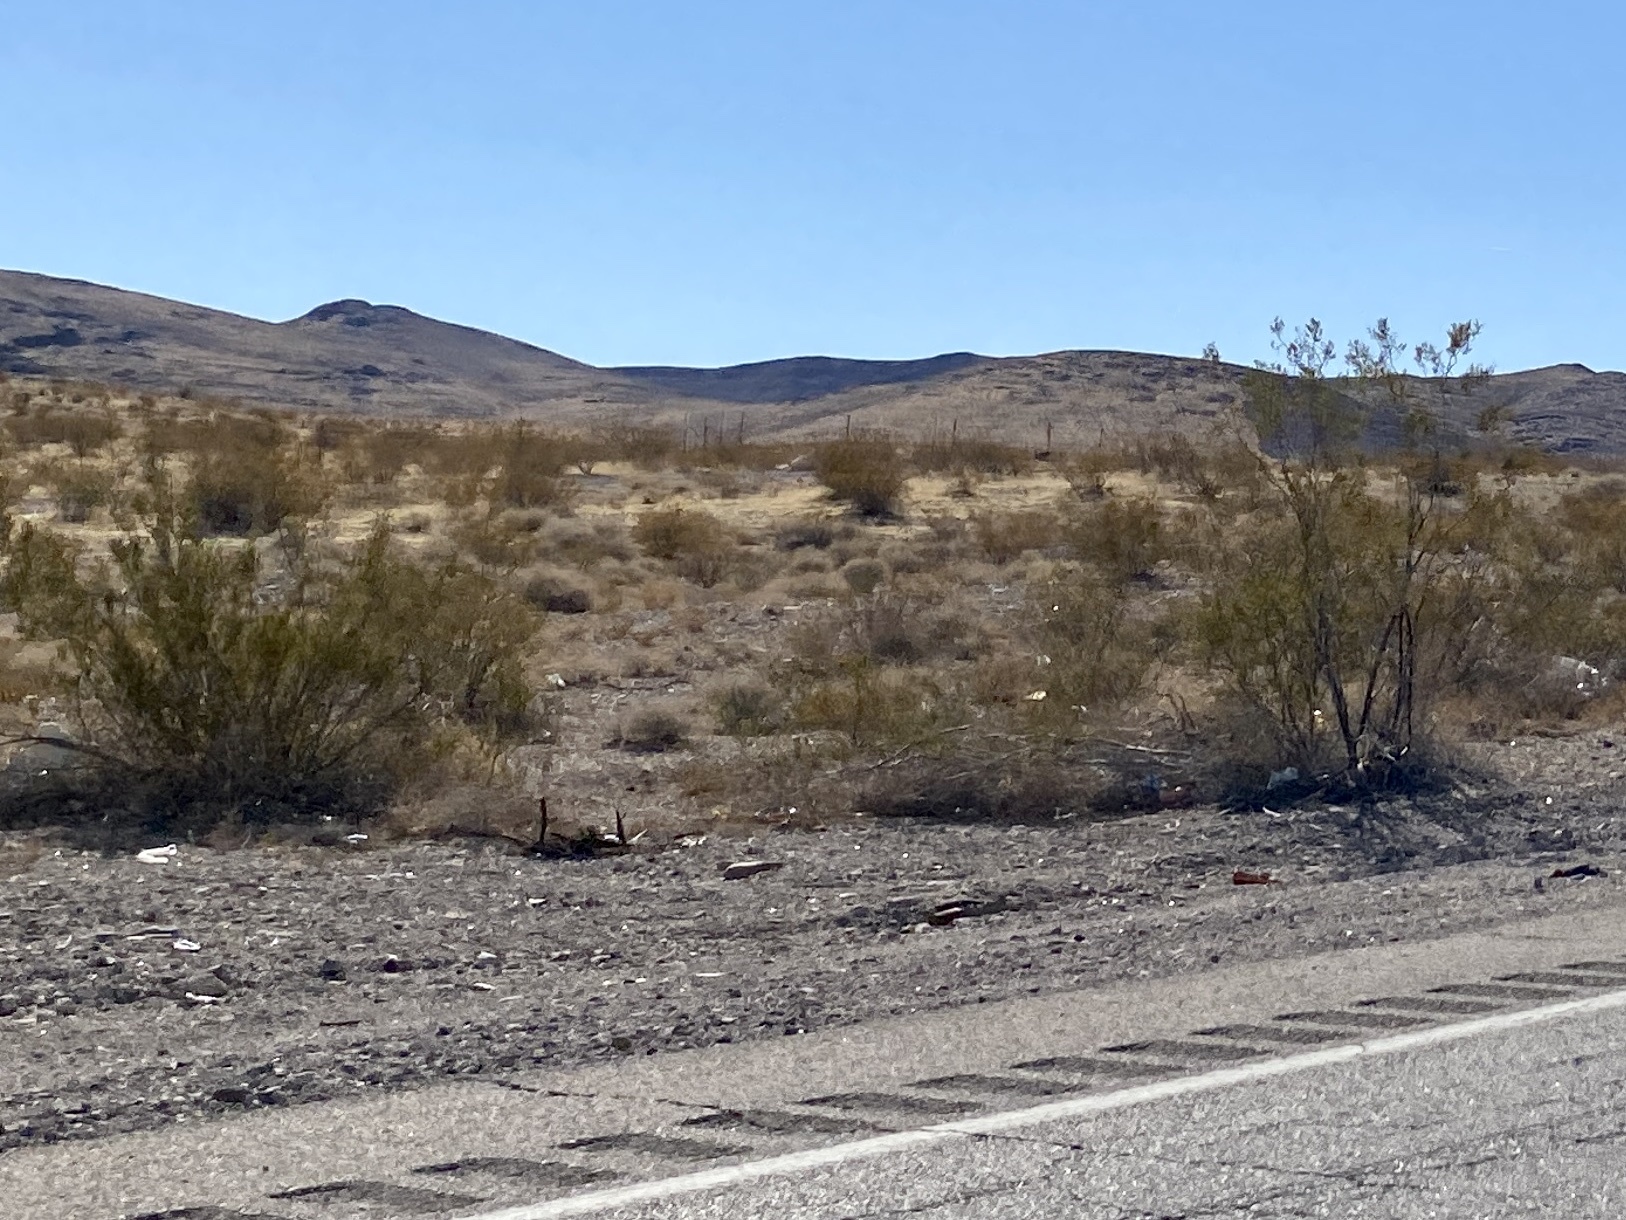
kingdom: Plantae
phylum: Tracheophyta
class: Magnoliopsida
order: Zygophyllales
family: Zygophyllaceae
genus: Larrea
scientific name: Larrea tridentata
